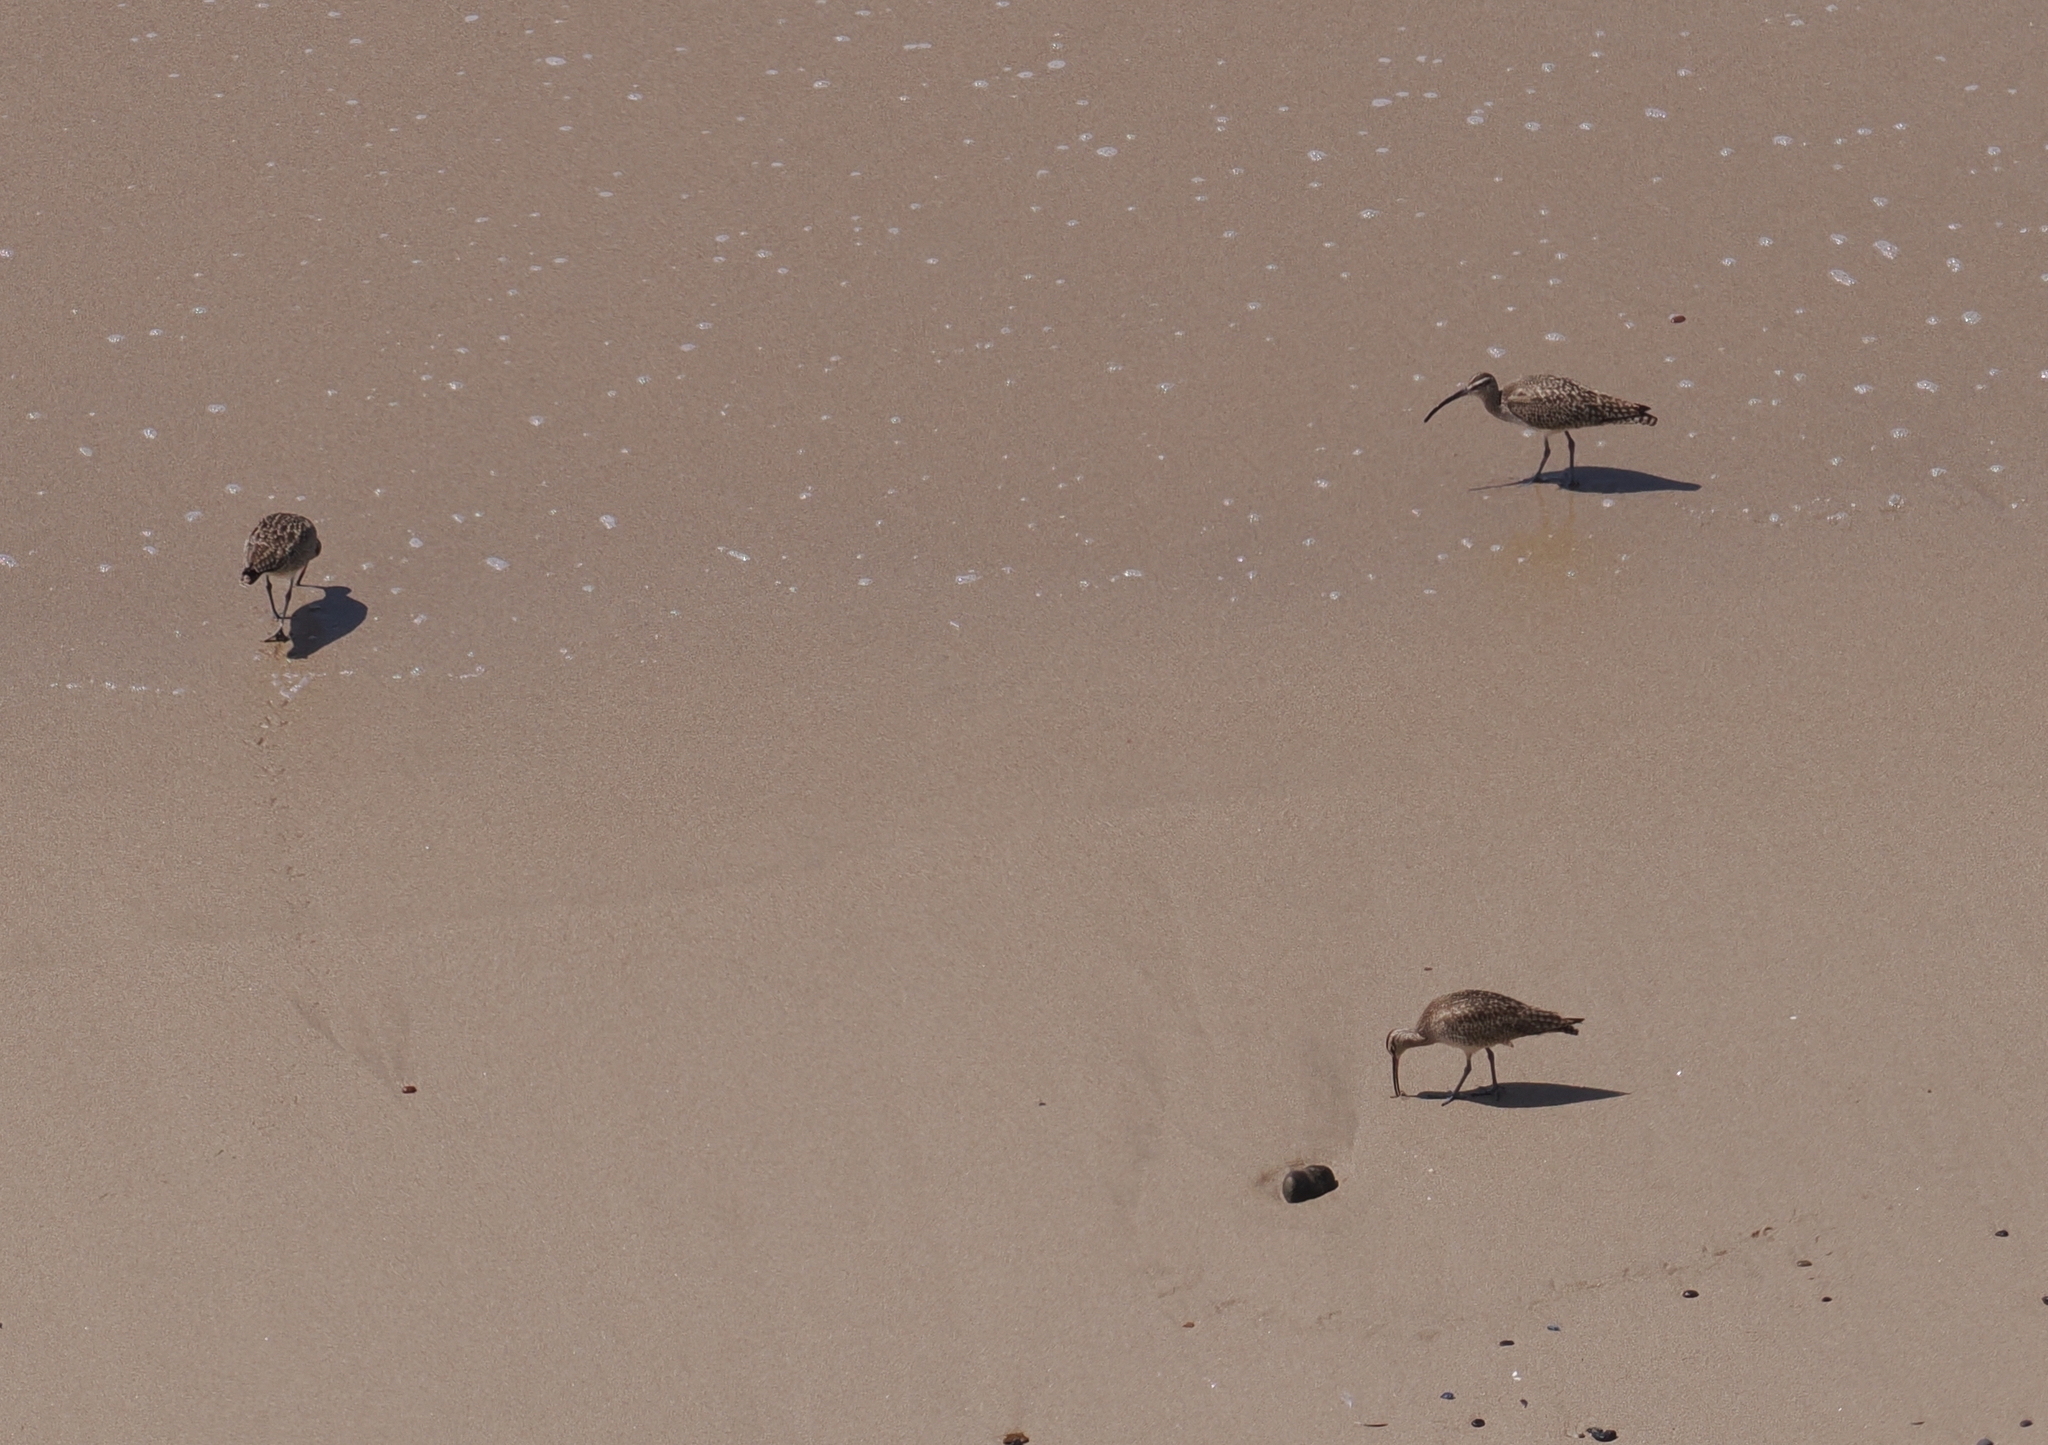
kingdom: Animalia
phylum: Chordata
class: Aves
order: Charadriiformes
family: Scolopacidae
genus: Numenius
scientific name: Numenius phaeopus
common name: Whimbrel
